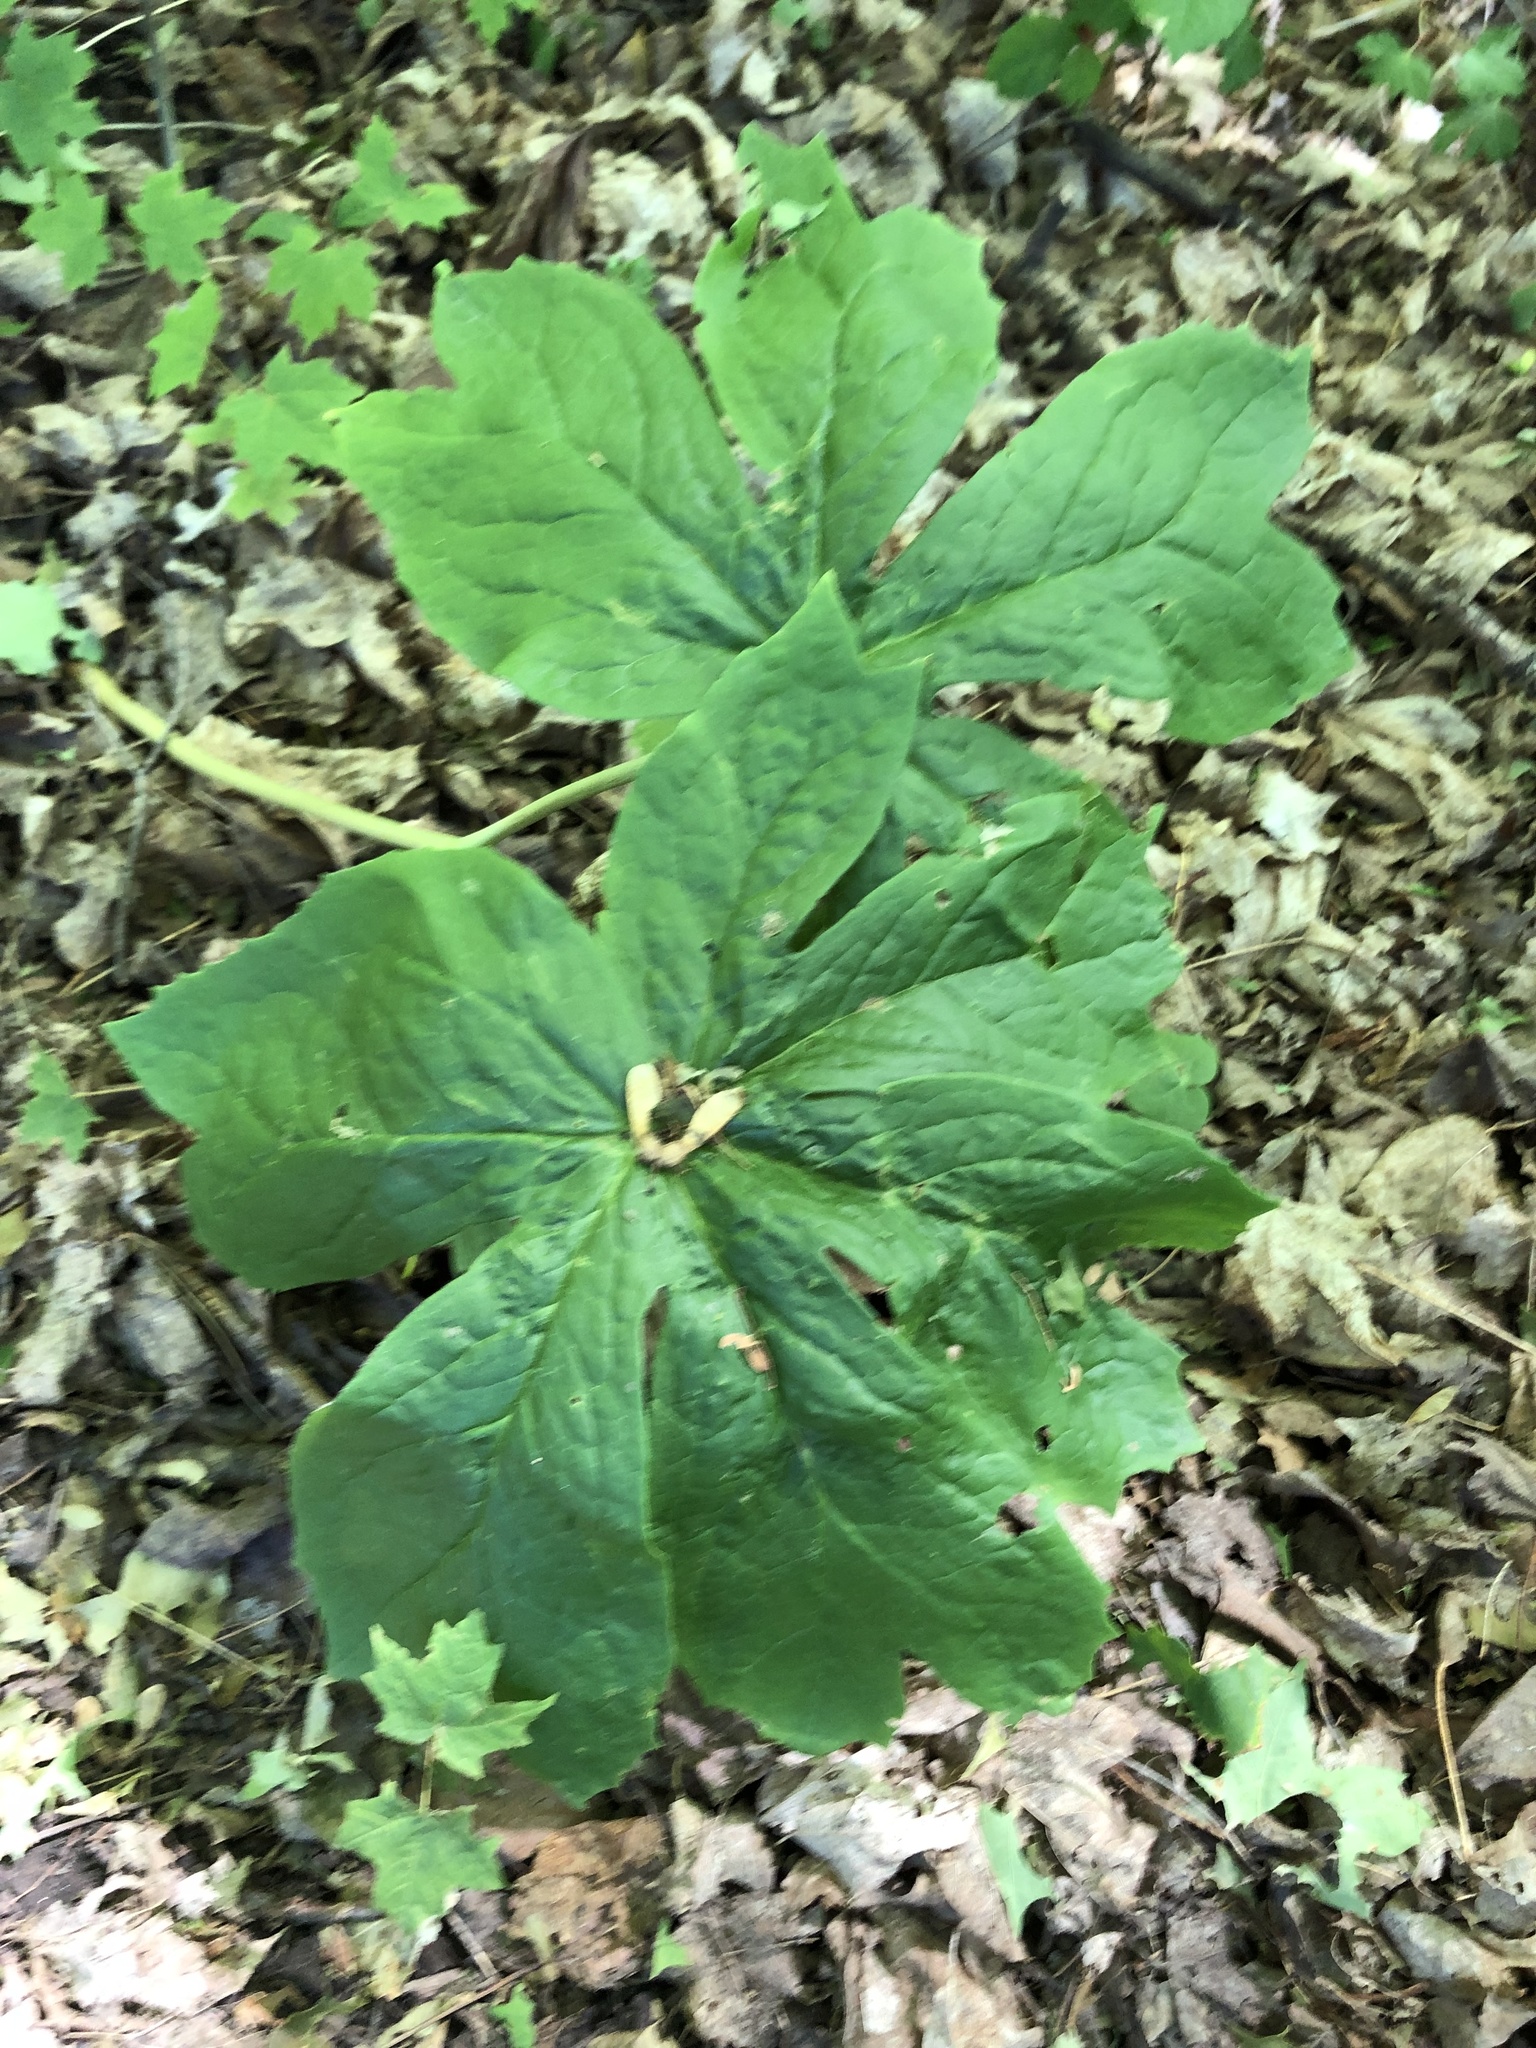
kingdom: Plantae
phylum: Tracheophyta
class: Magnoliopsida
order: Ranunculales
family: Berberidaceae
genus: Podophyllum
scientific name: Podophyllum peltatum
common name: Wild mandrake
